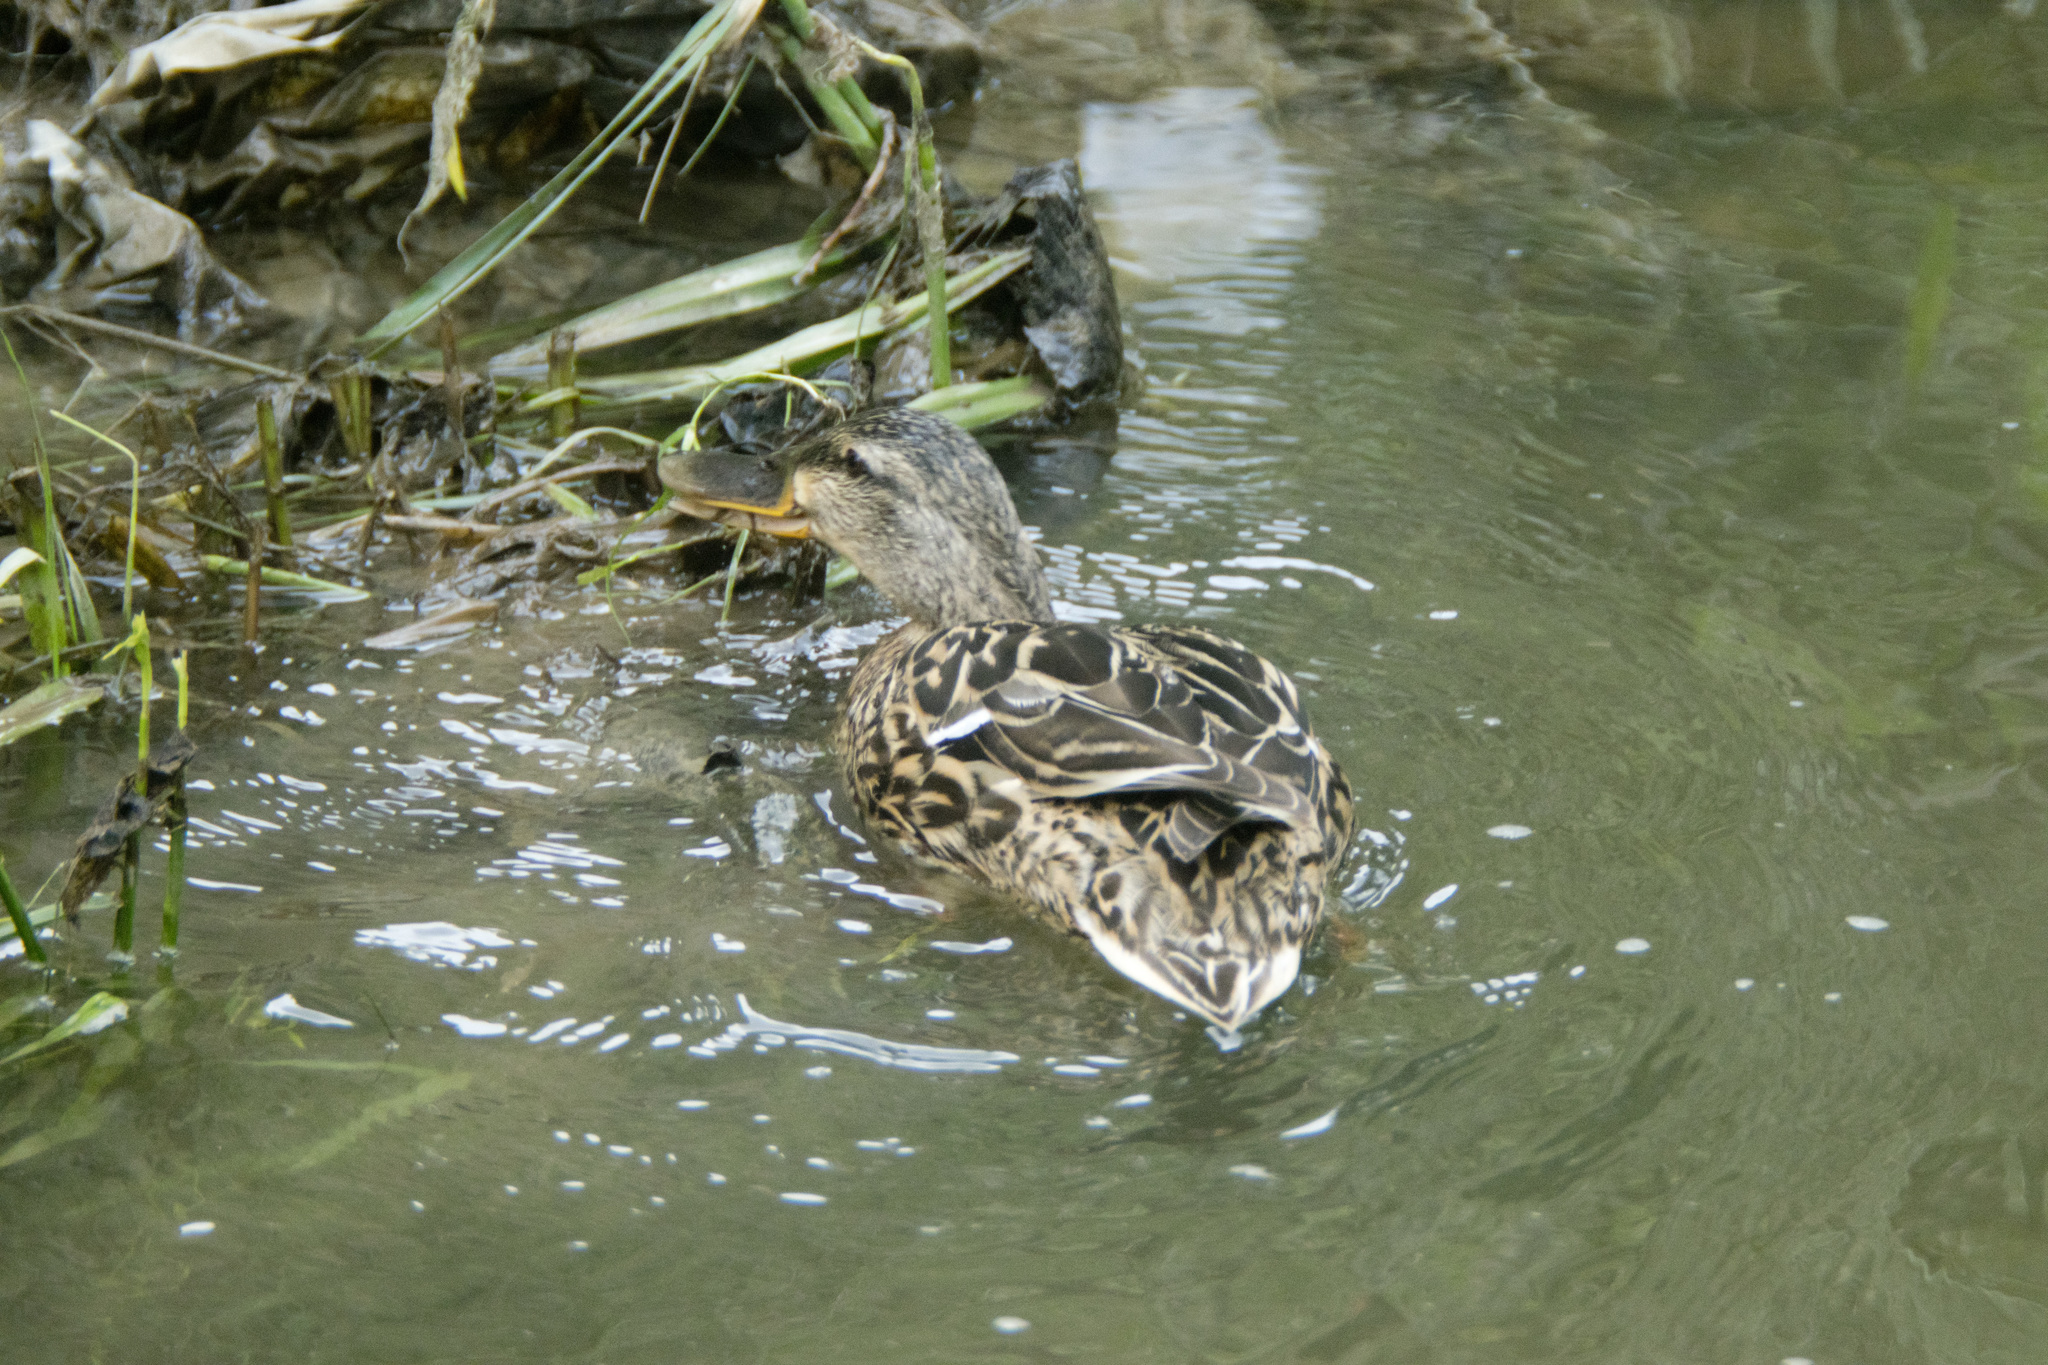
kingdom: Animalia
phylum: Chordata
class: Aves
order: Anseriformes
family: Anatidae
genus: Anas
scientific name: Anas platyrhynchos
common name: Mallard
